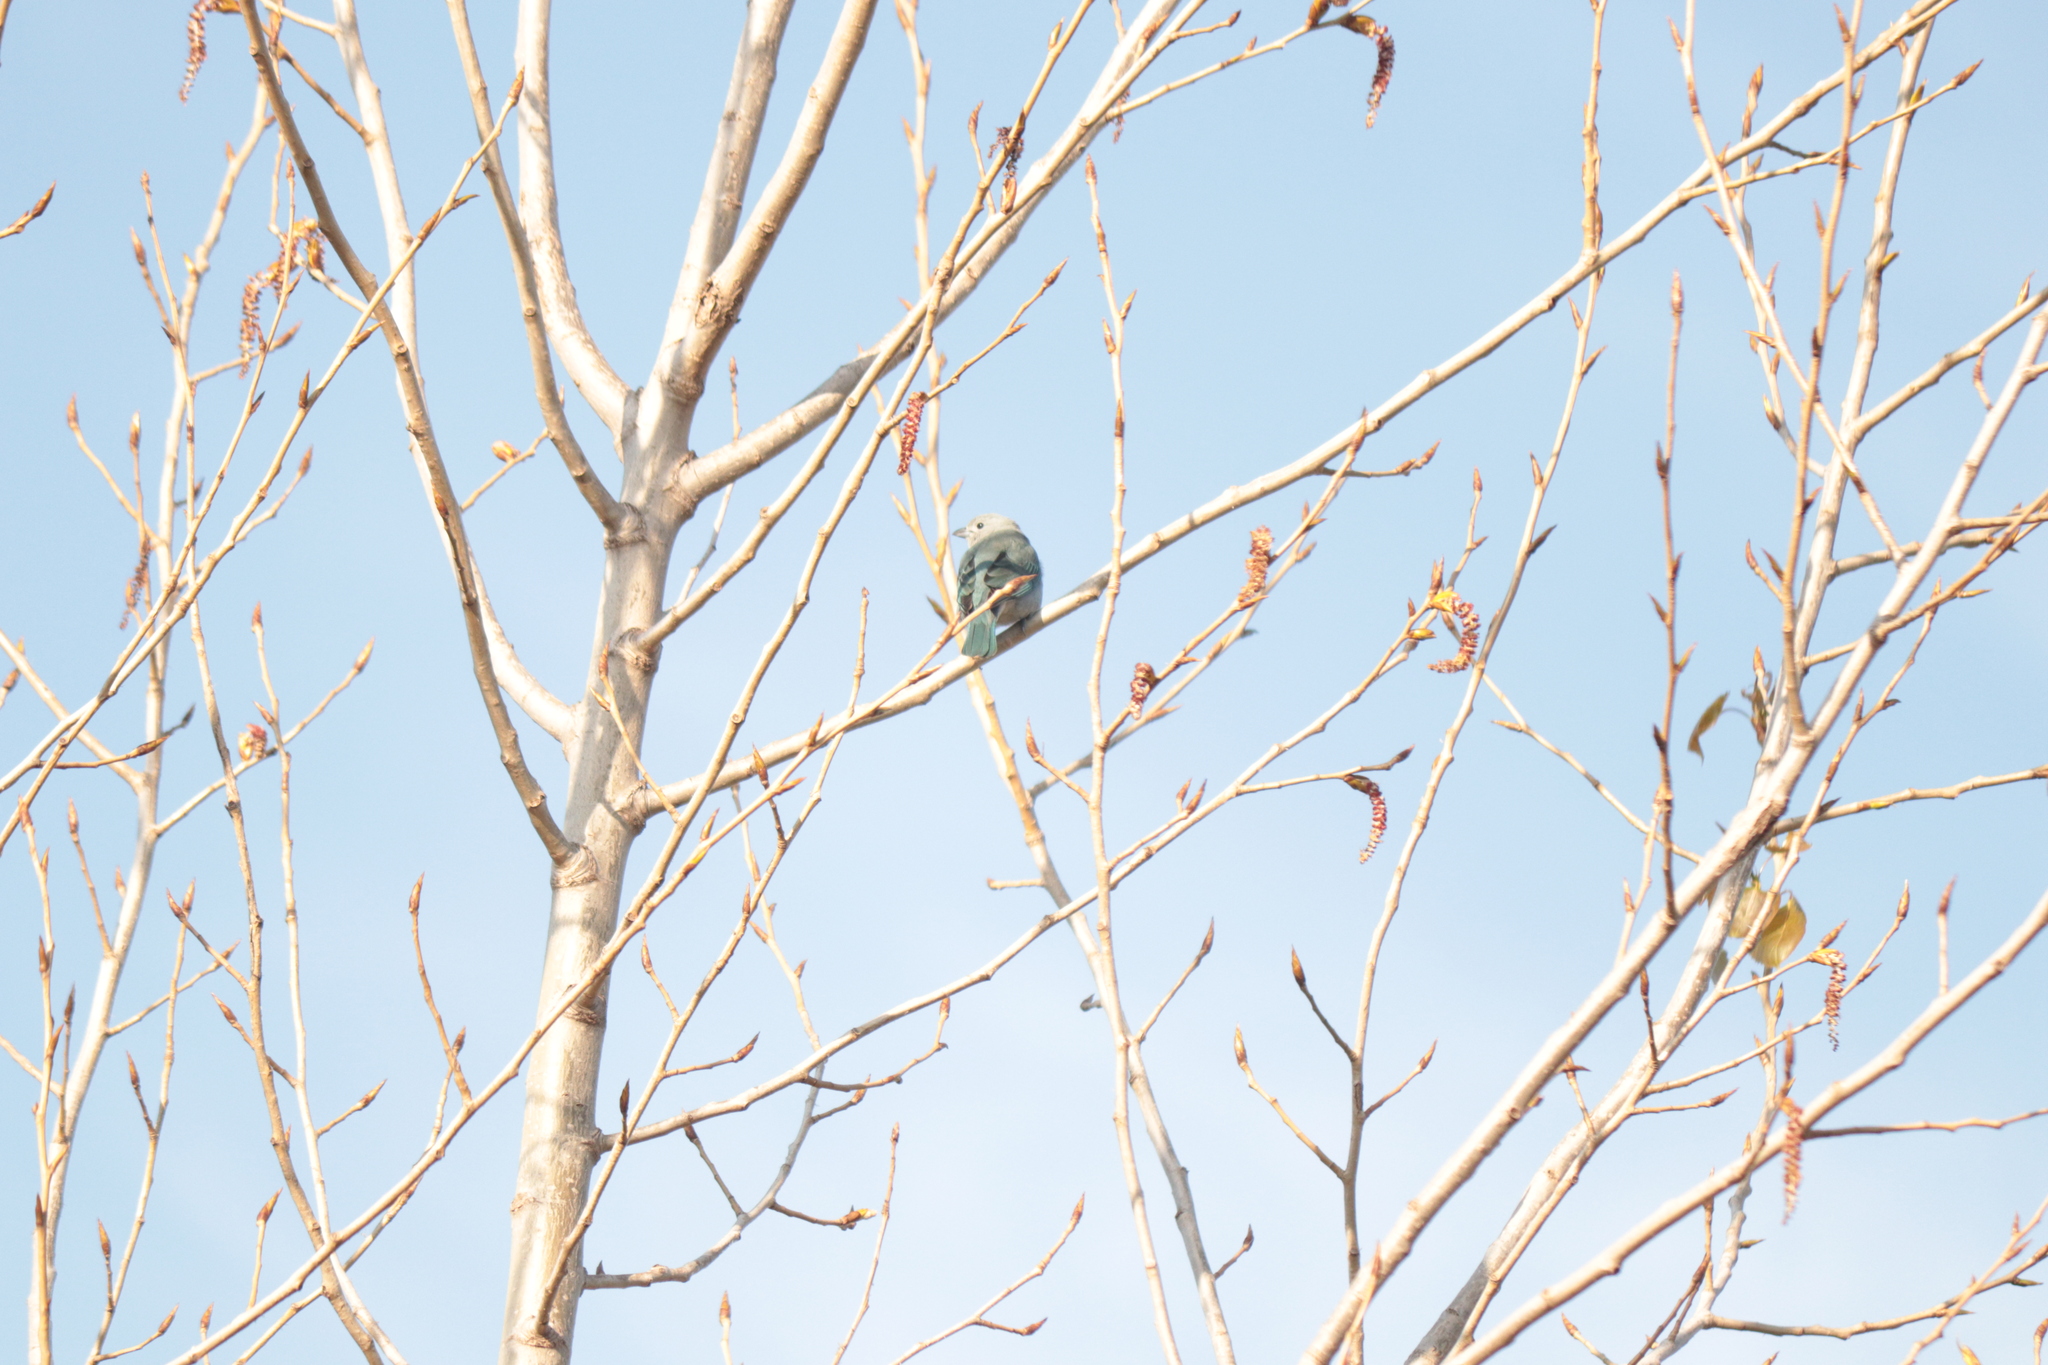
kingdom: Animalia
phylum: Chordata
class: Aves
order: Passeriformes
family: Thraupidae
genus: Thraupis
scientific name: Thraupis sayaca
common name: Sayaca tanager
